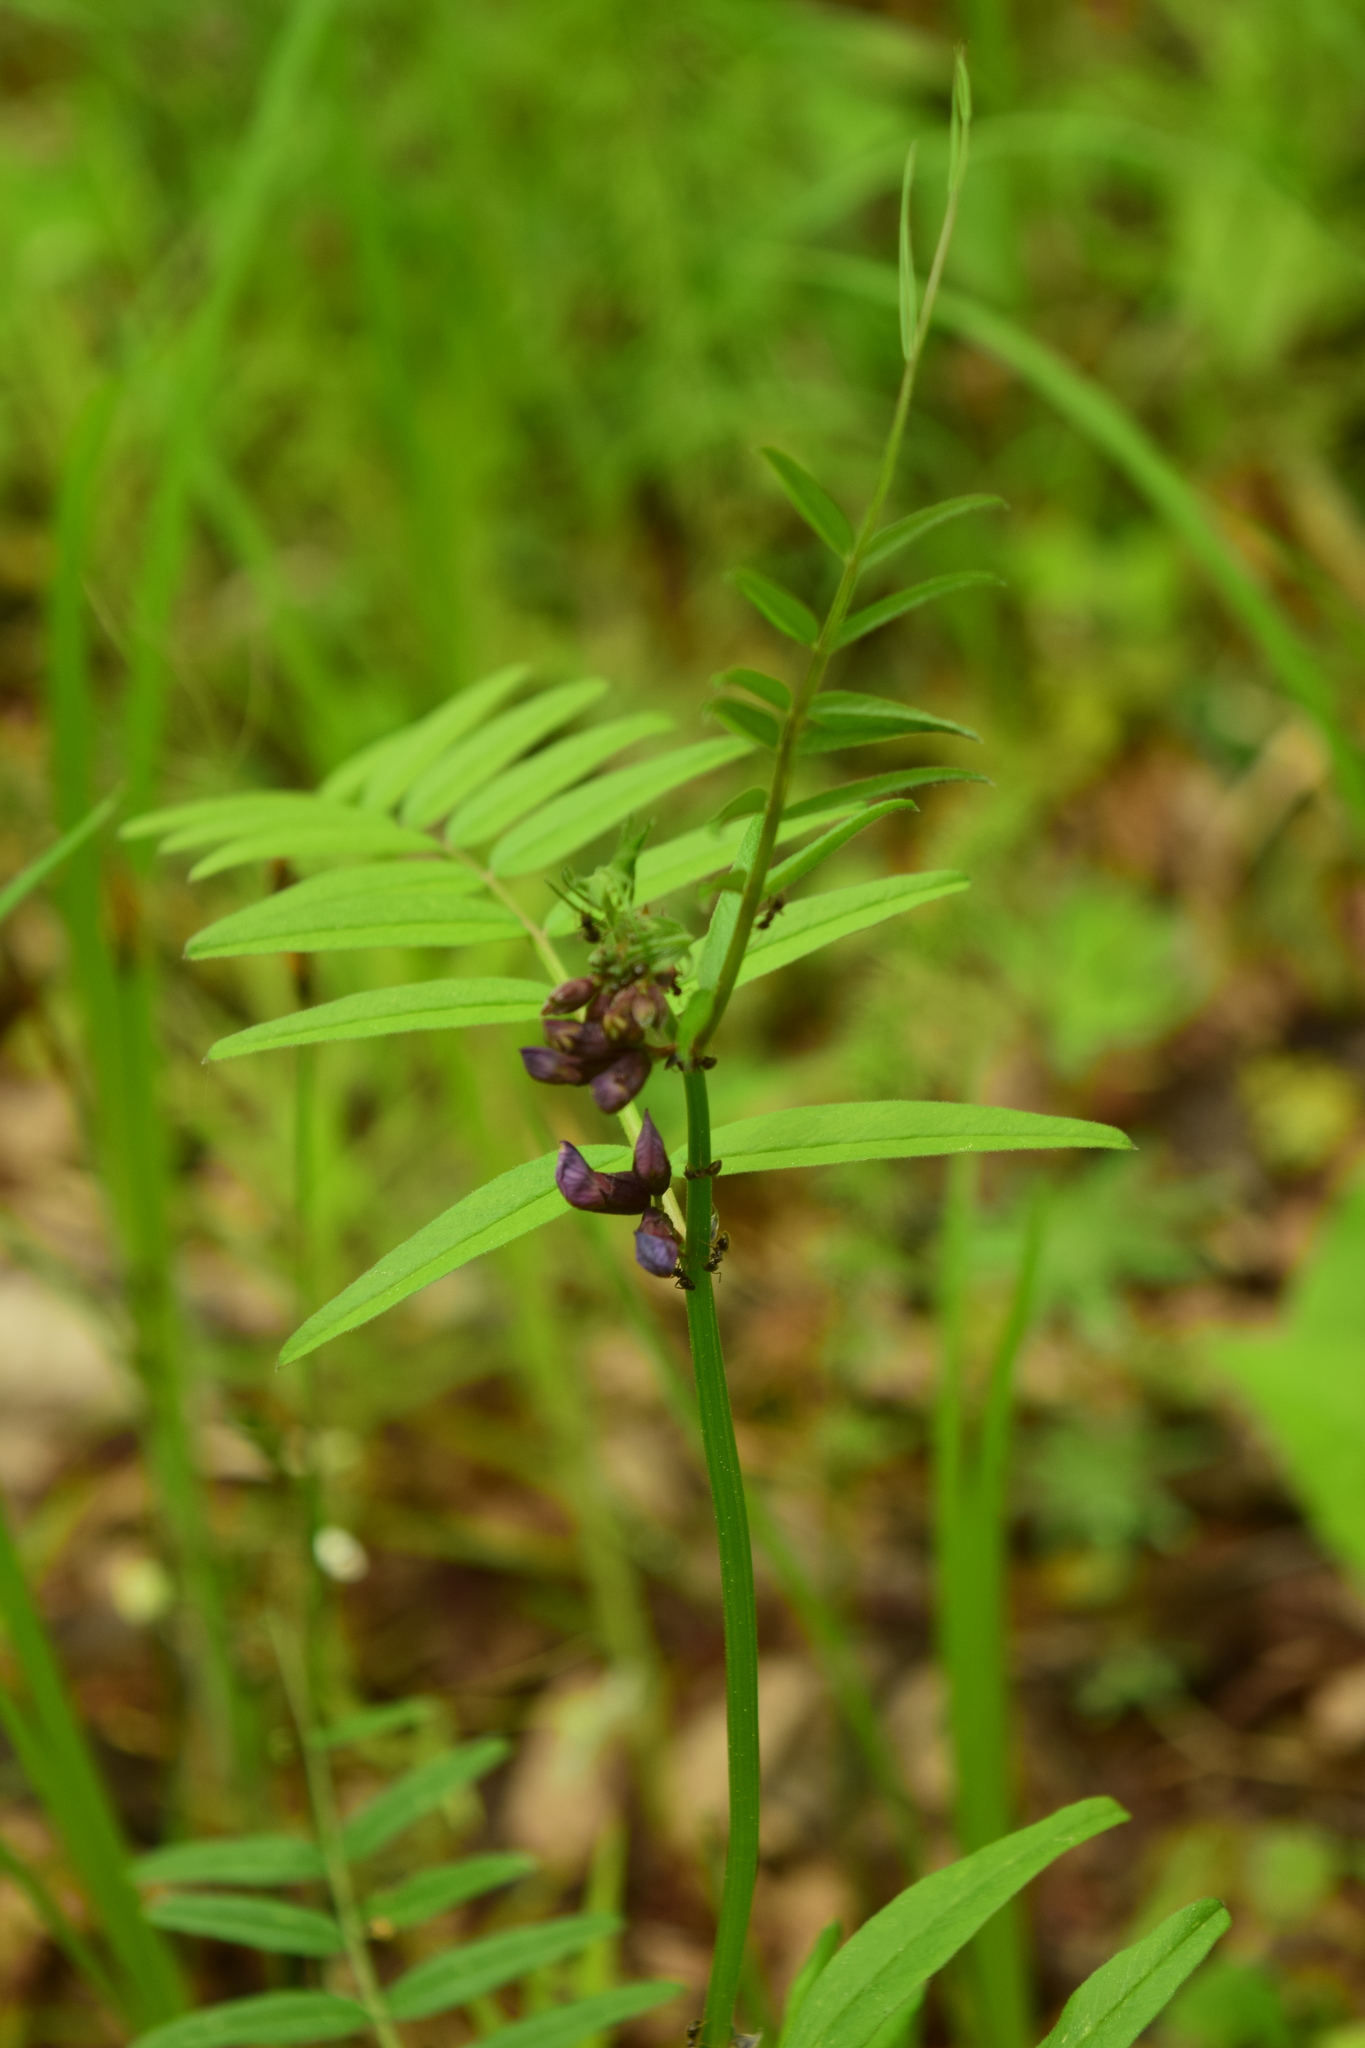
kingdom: Plantae
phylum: Tracheophyta
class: Magnoliopsida
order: Fabales
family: Fabaceae
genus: Vicia
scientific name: Vicia sepium
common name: Bush vetch
